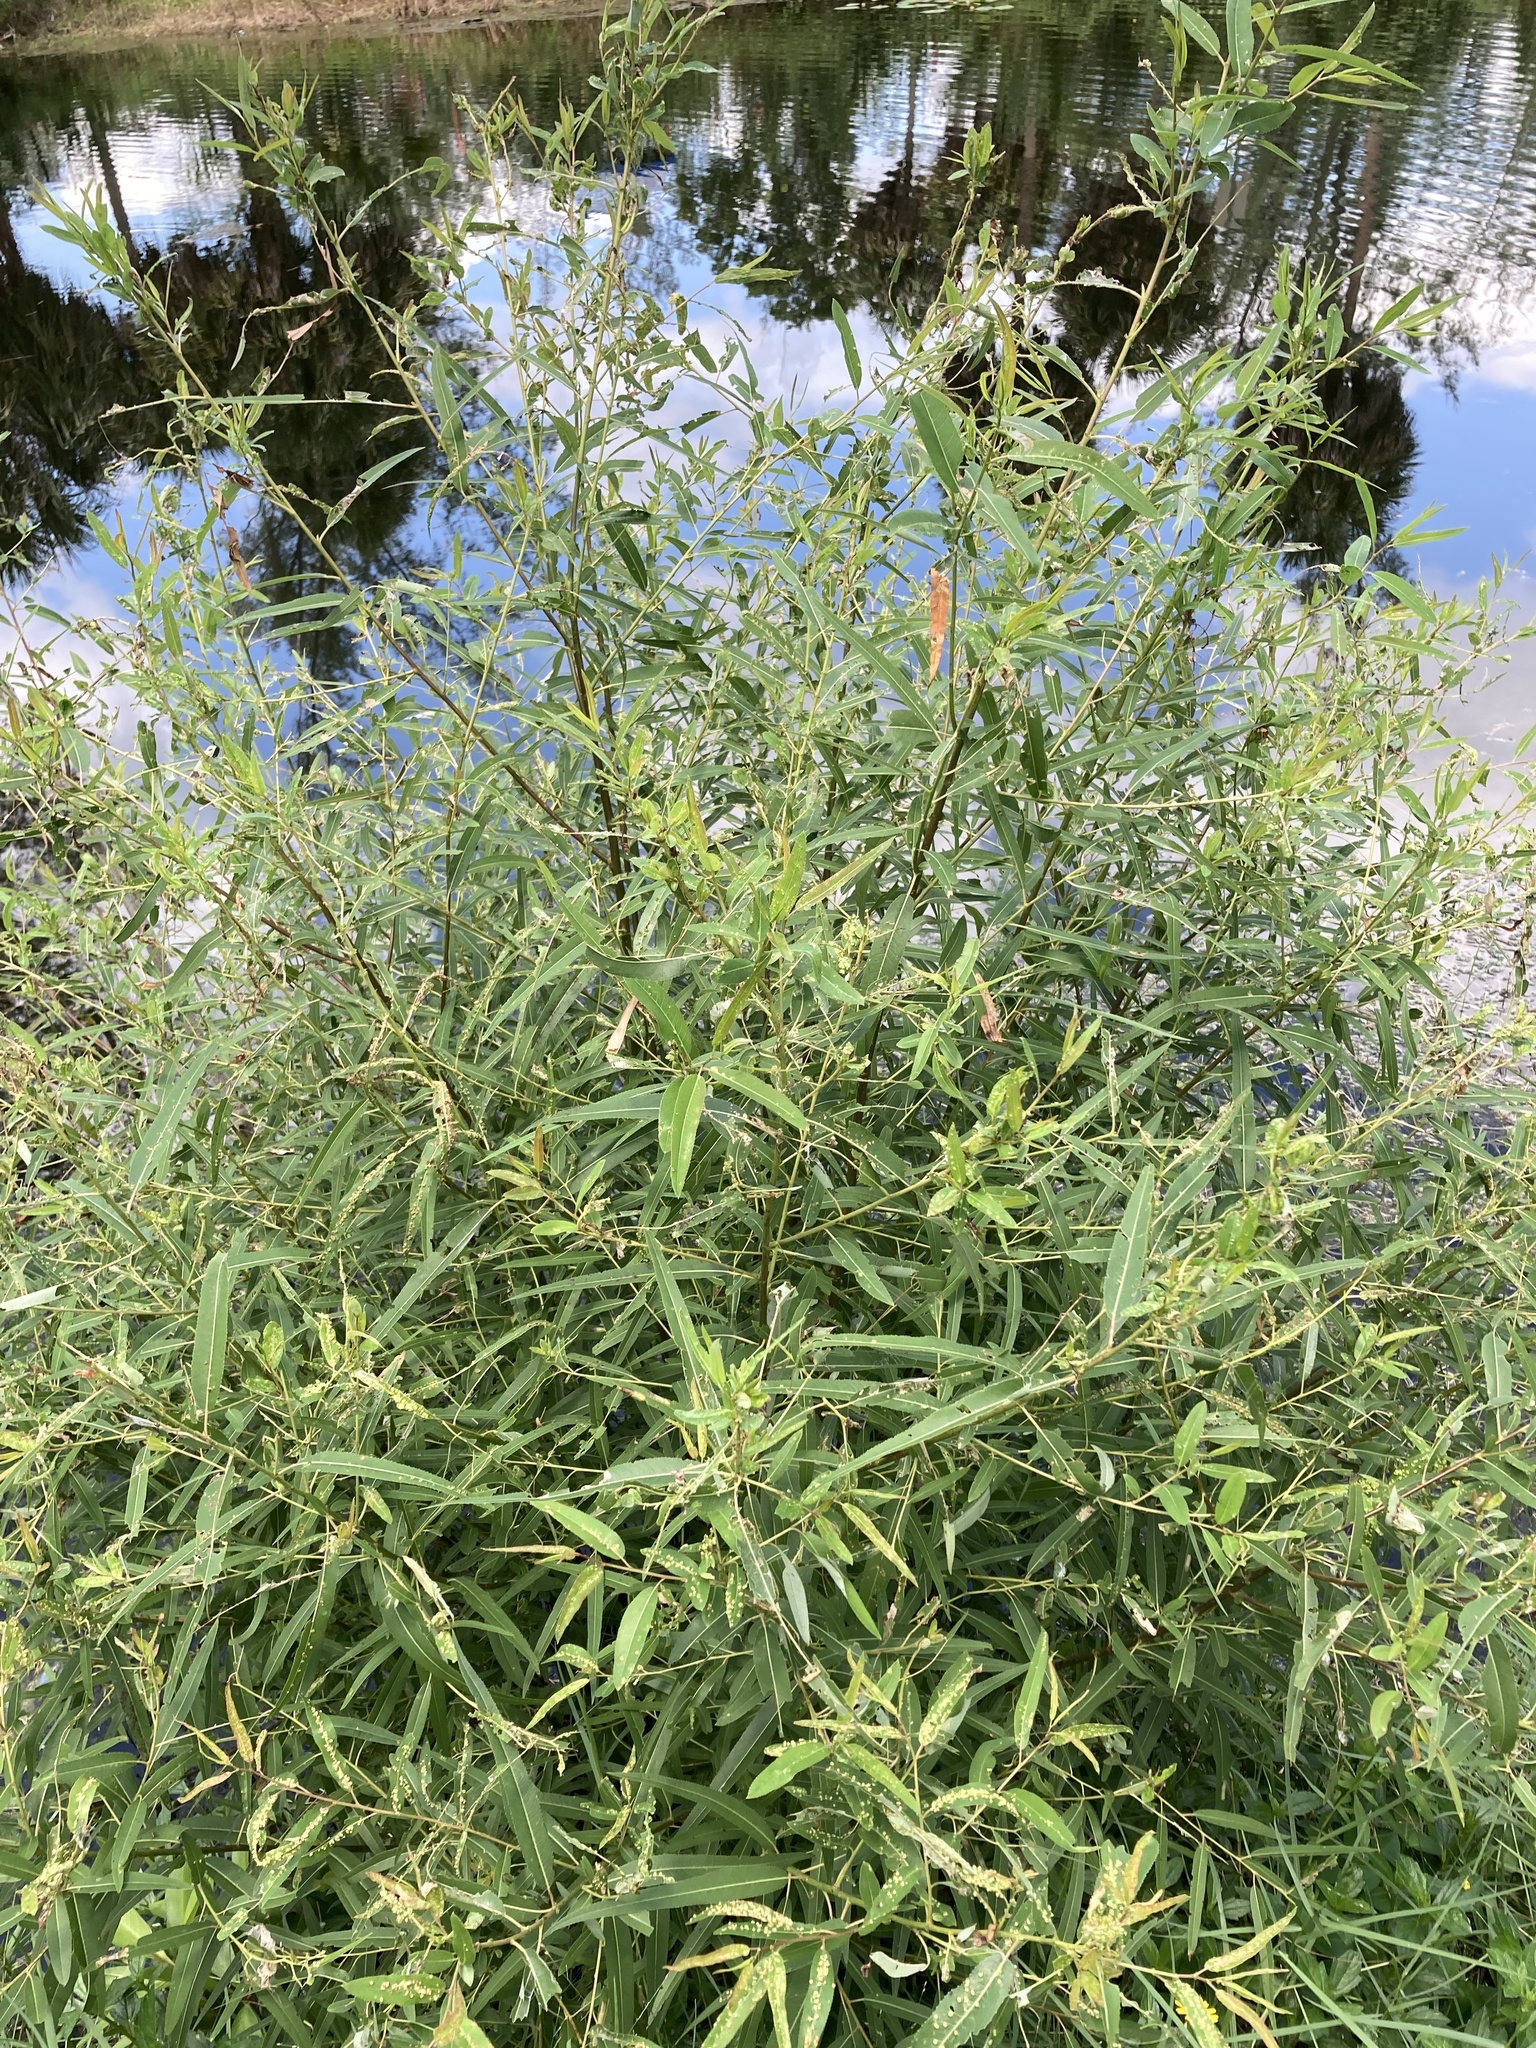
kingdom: Plantae
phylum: Tracheophyta
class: Magnoliopsida
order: Malpighiales
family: Salicaceae
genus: Salix
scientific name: Salix caroliniana
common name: Carolina willow
